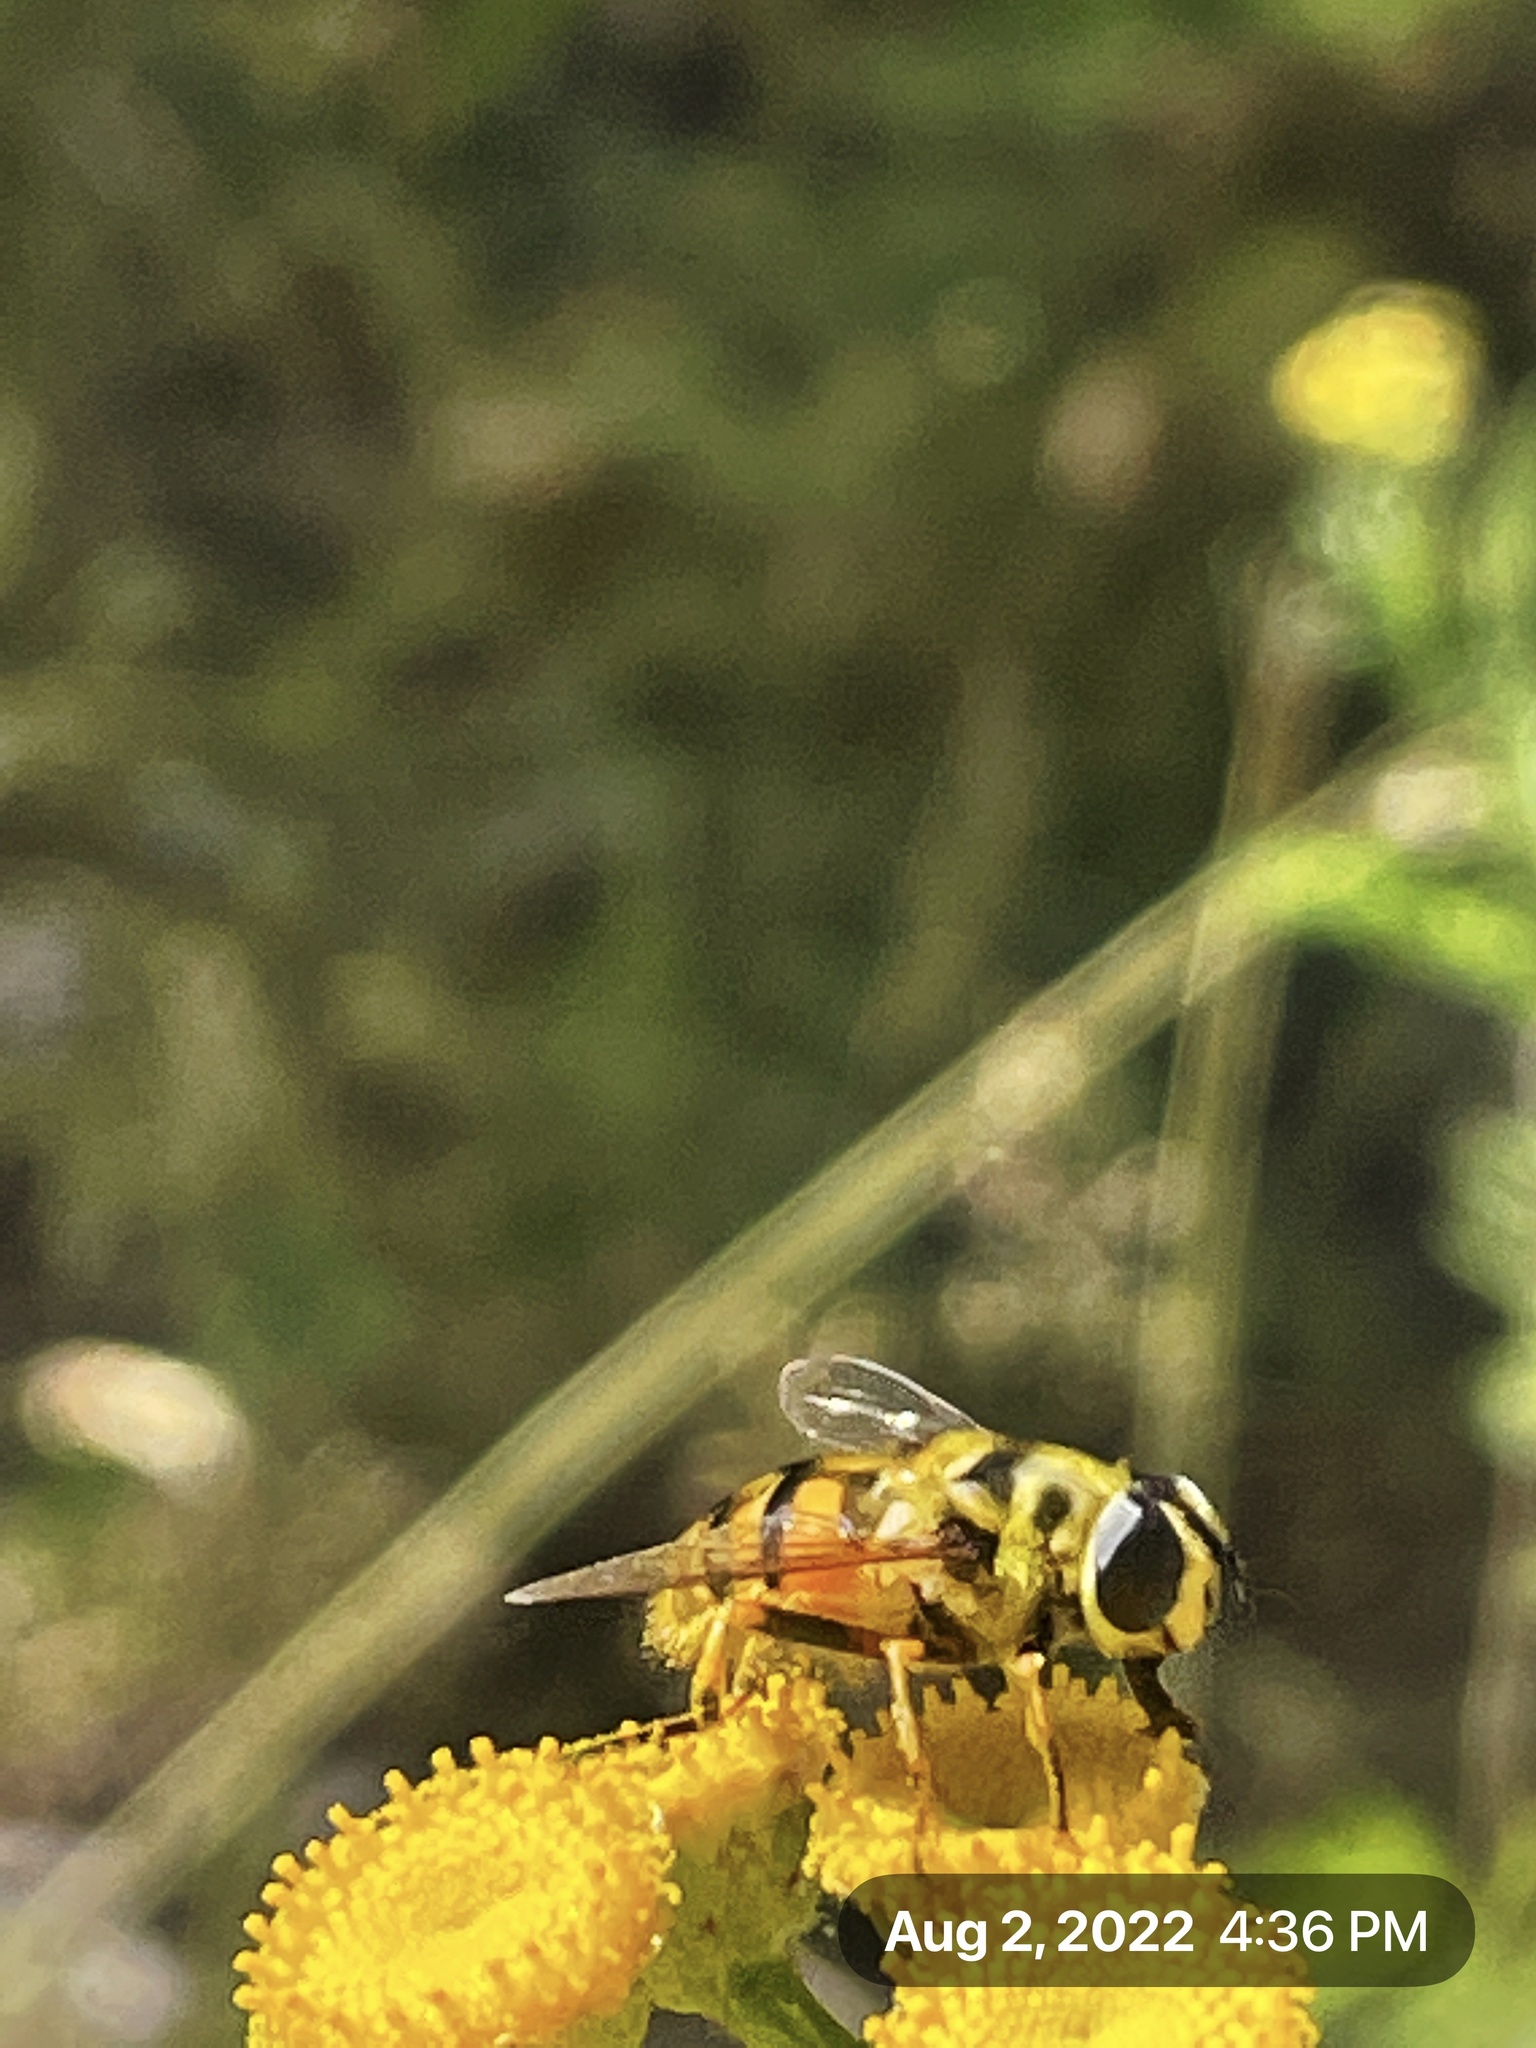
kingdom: Animalia
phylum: Arthropoda
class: Insecta
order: Diptera
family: Syrphidae
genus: Myathropa
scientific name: Myathropa florea
